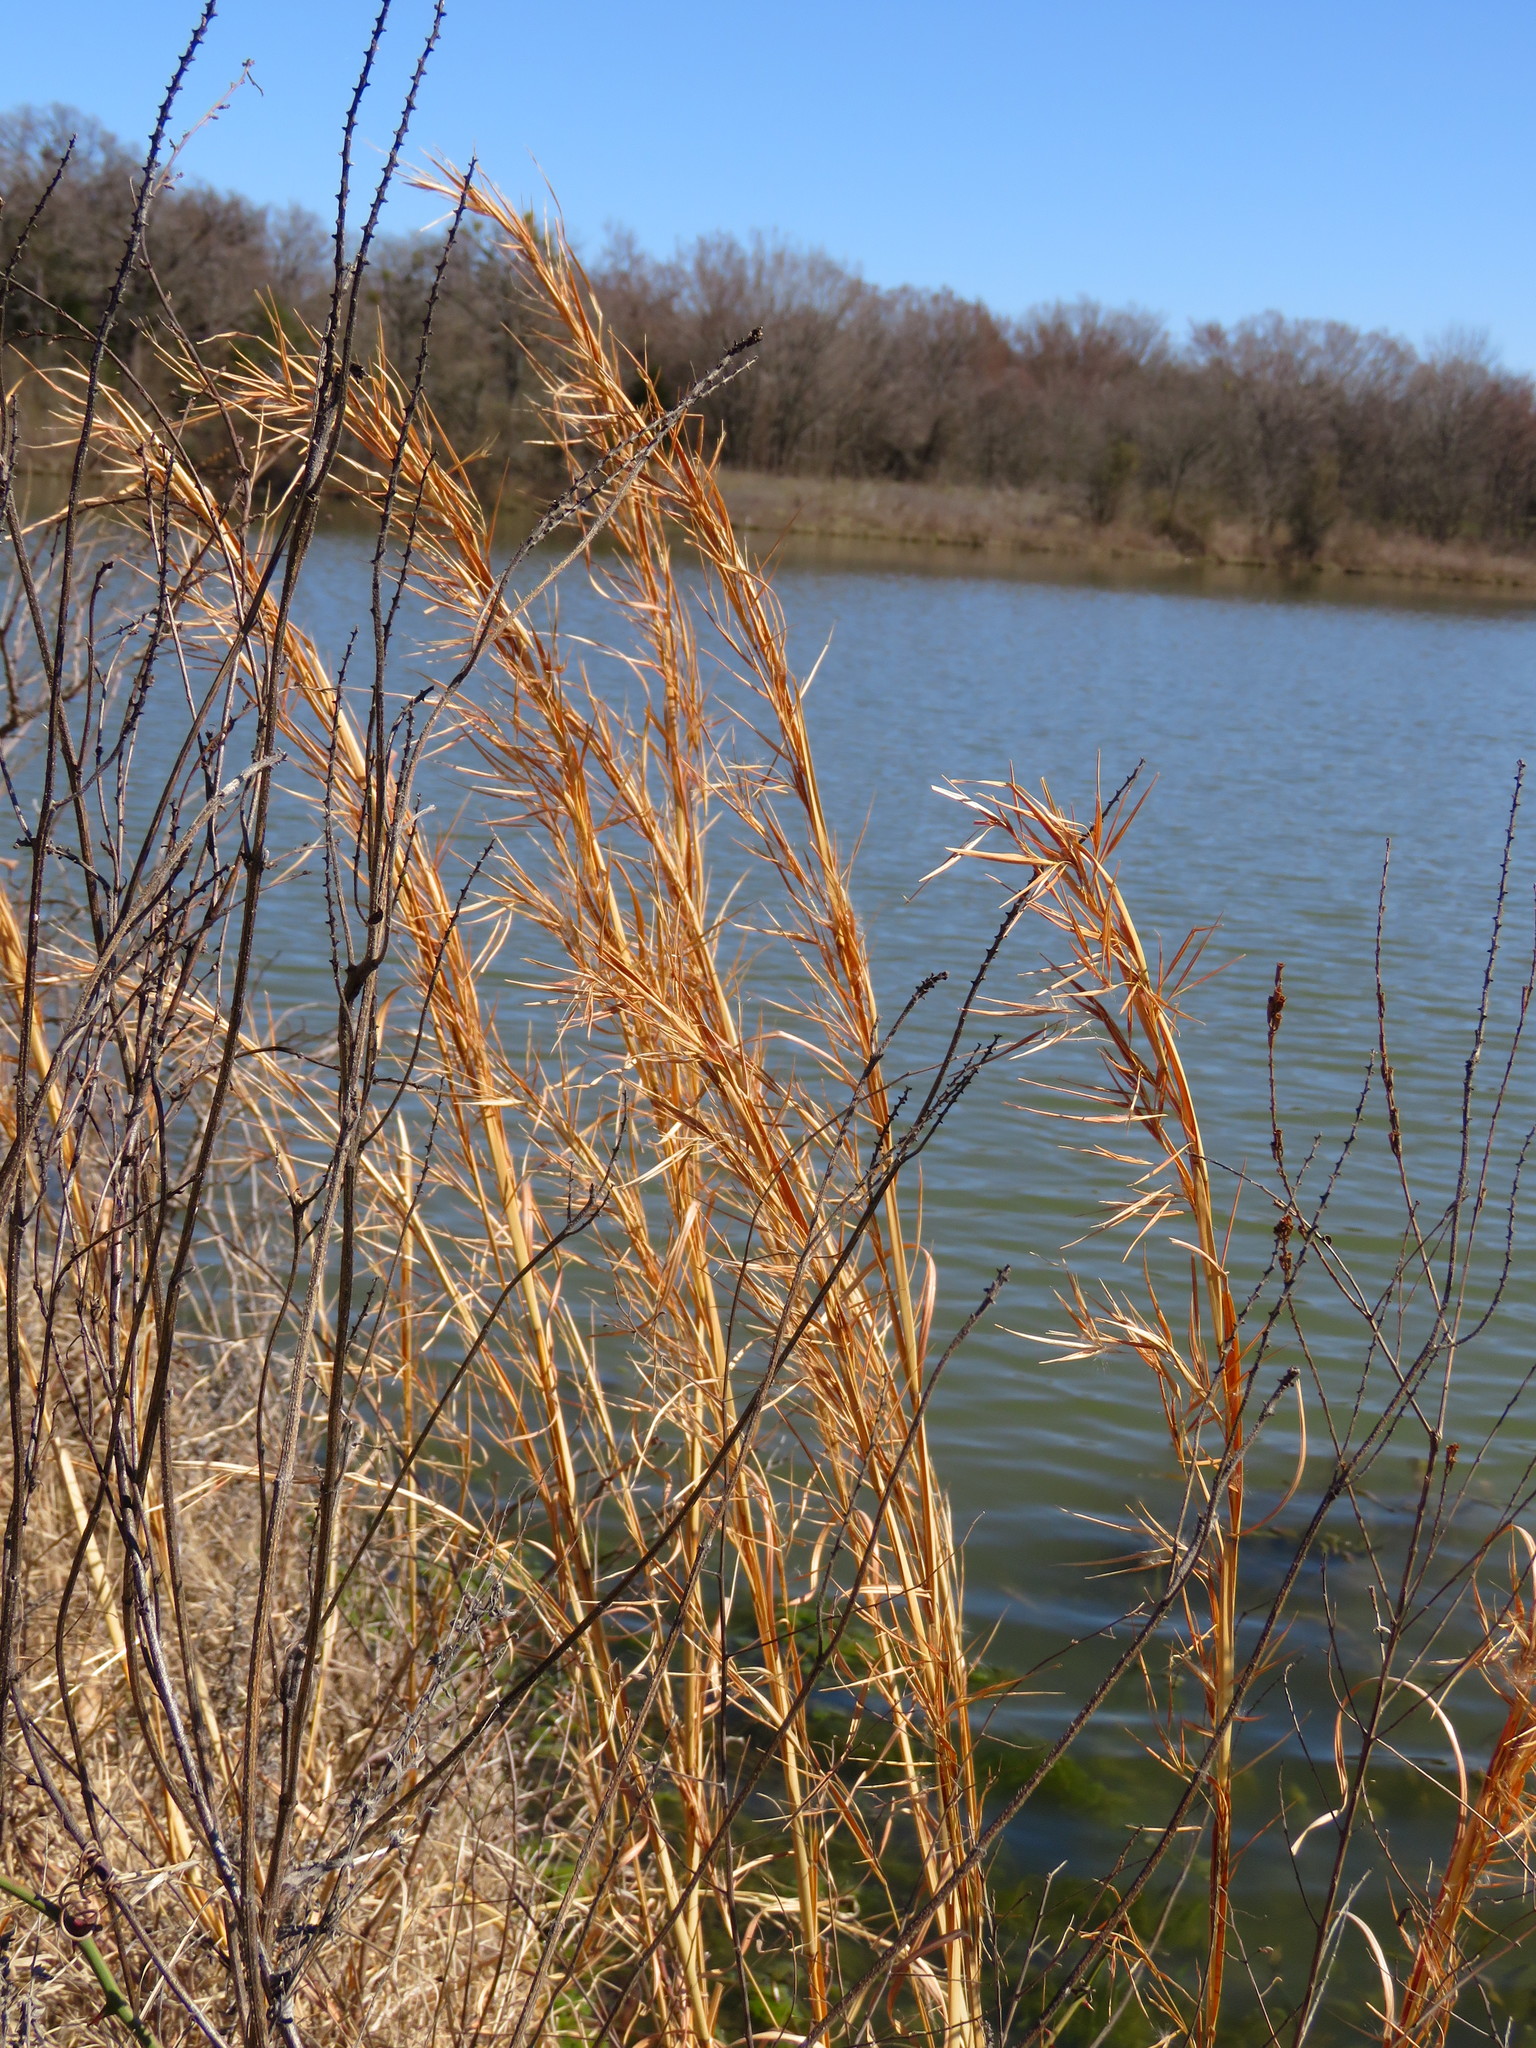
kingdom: Plantae
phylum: Tracheophyta
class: Liliopsida
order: Poales
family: Poaceae
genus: Andropogon
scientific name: Andropogon virginicus
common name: Broomsedge bluestem
